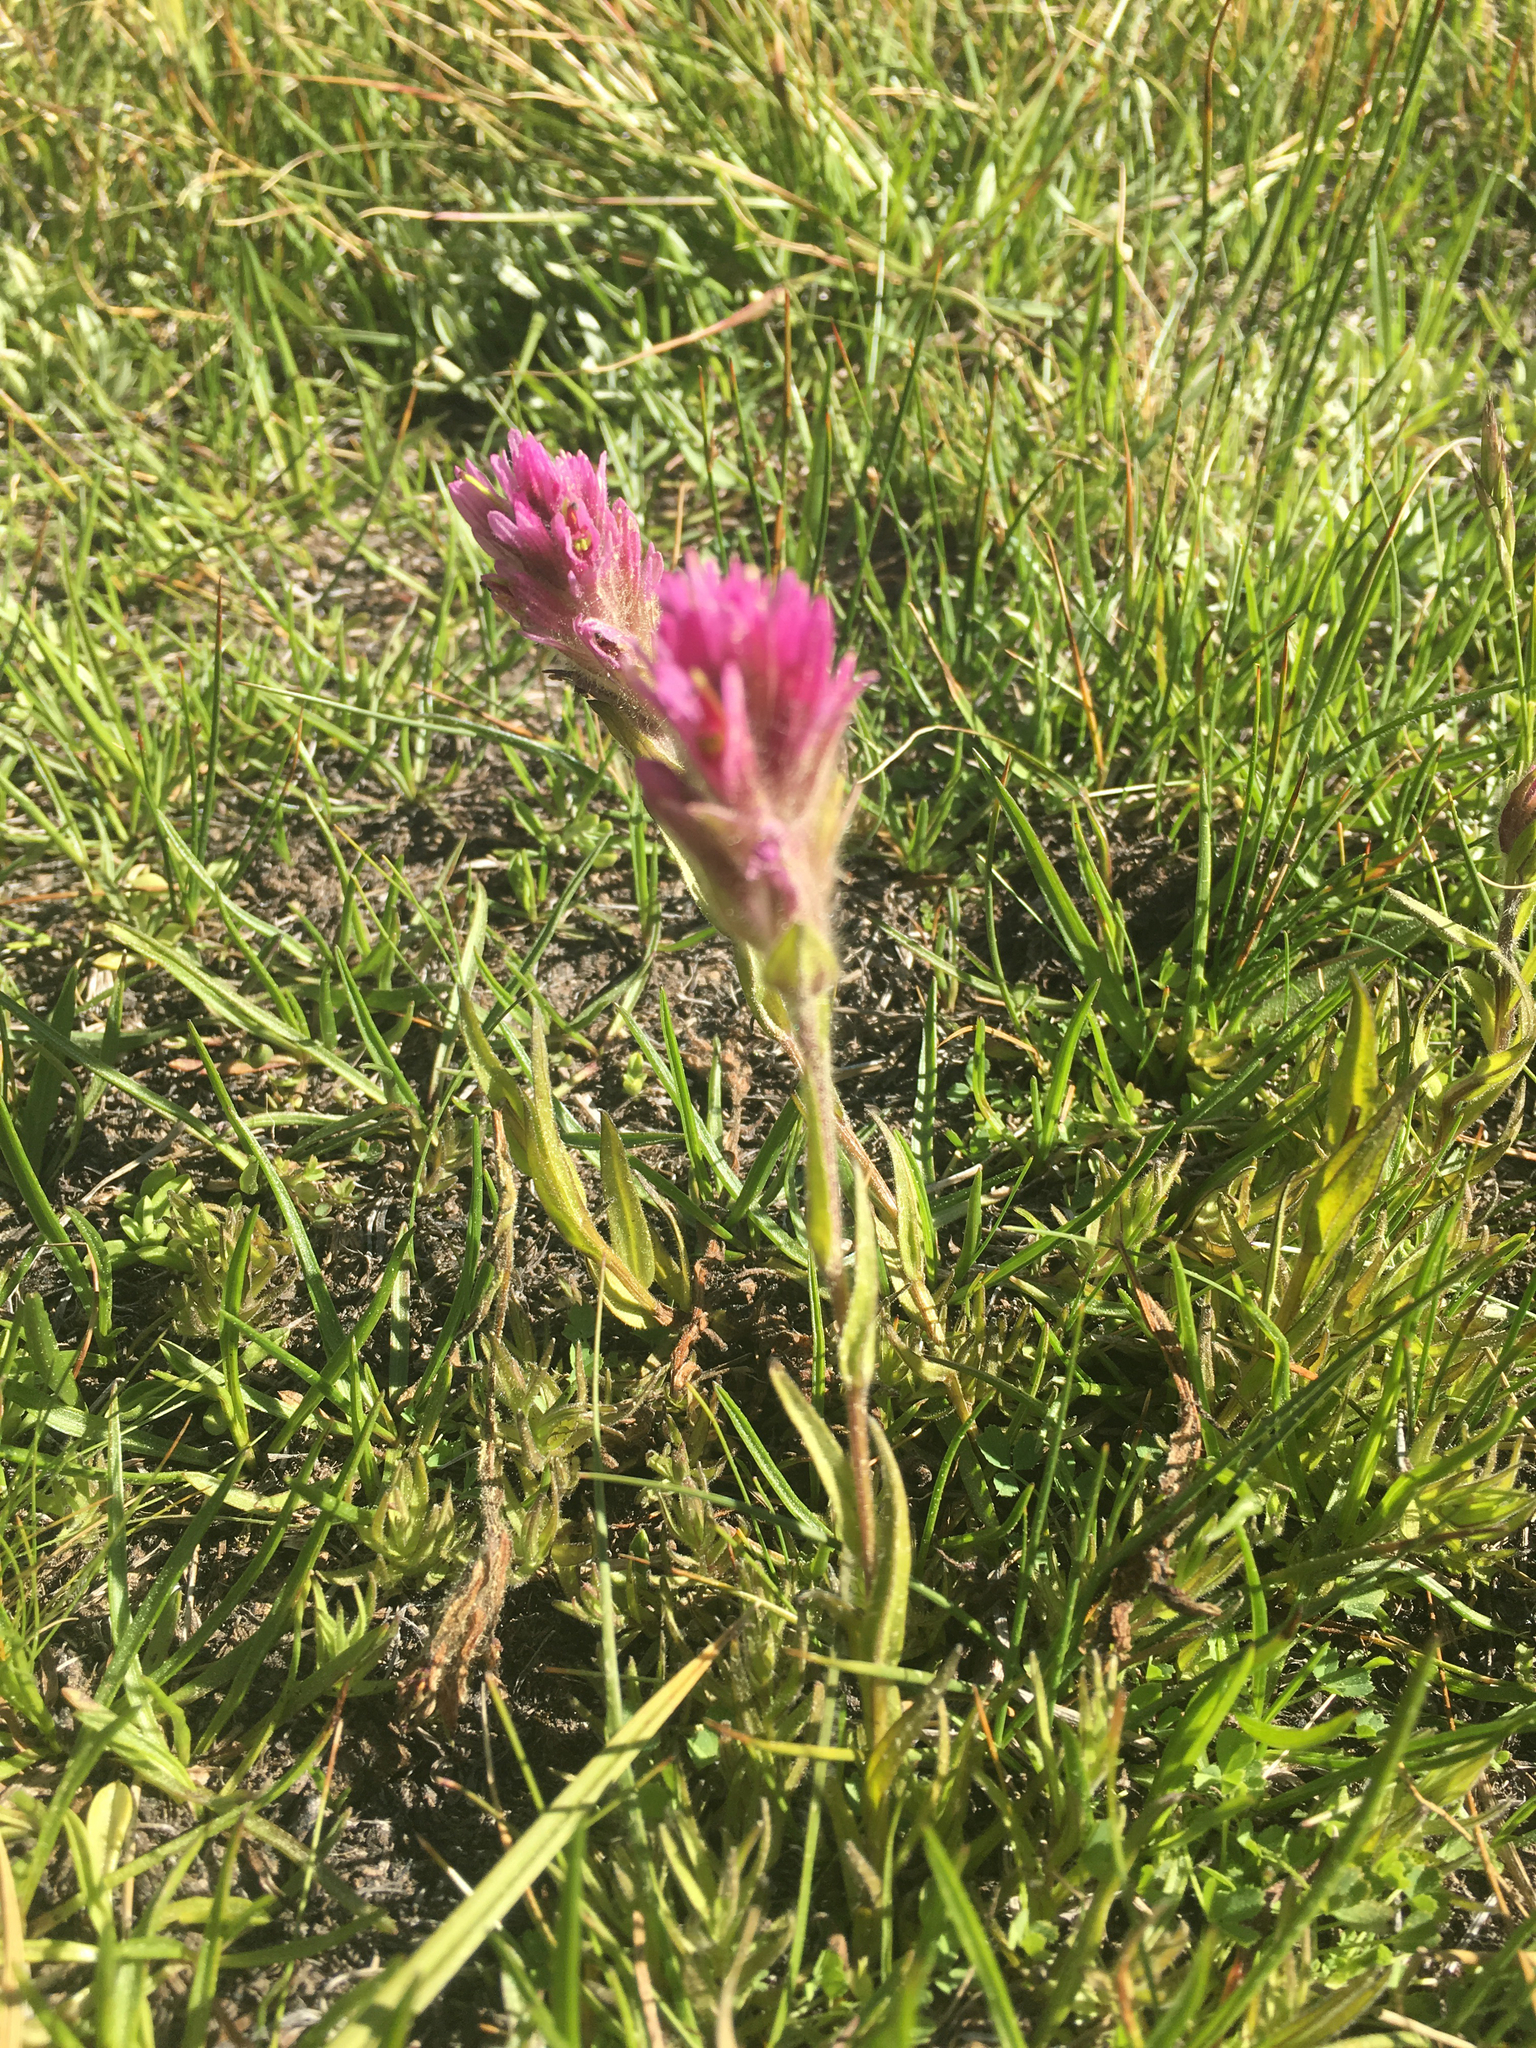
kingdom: Plantae
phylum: Tracheophyta
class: Magnoliopsida
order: Lamiales
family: Orobanchaceae
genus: Castilleja
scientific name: Castilleja lemmonii
